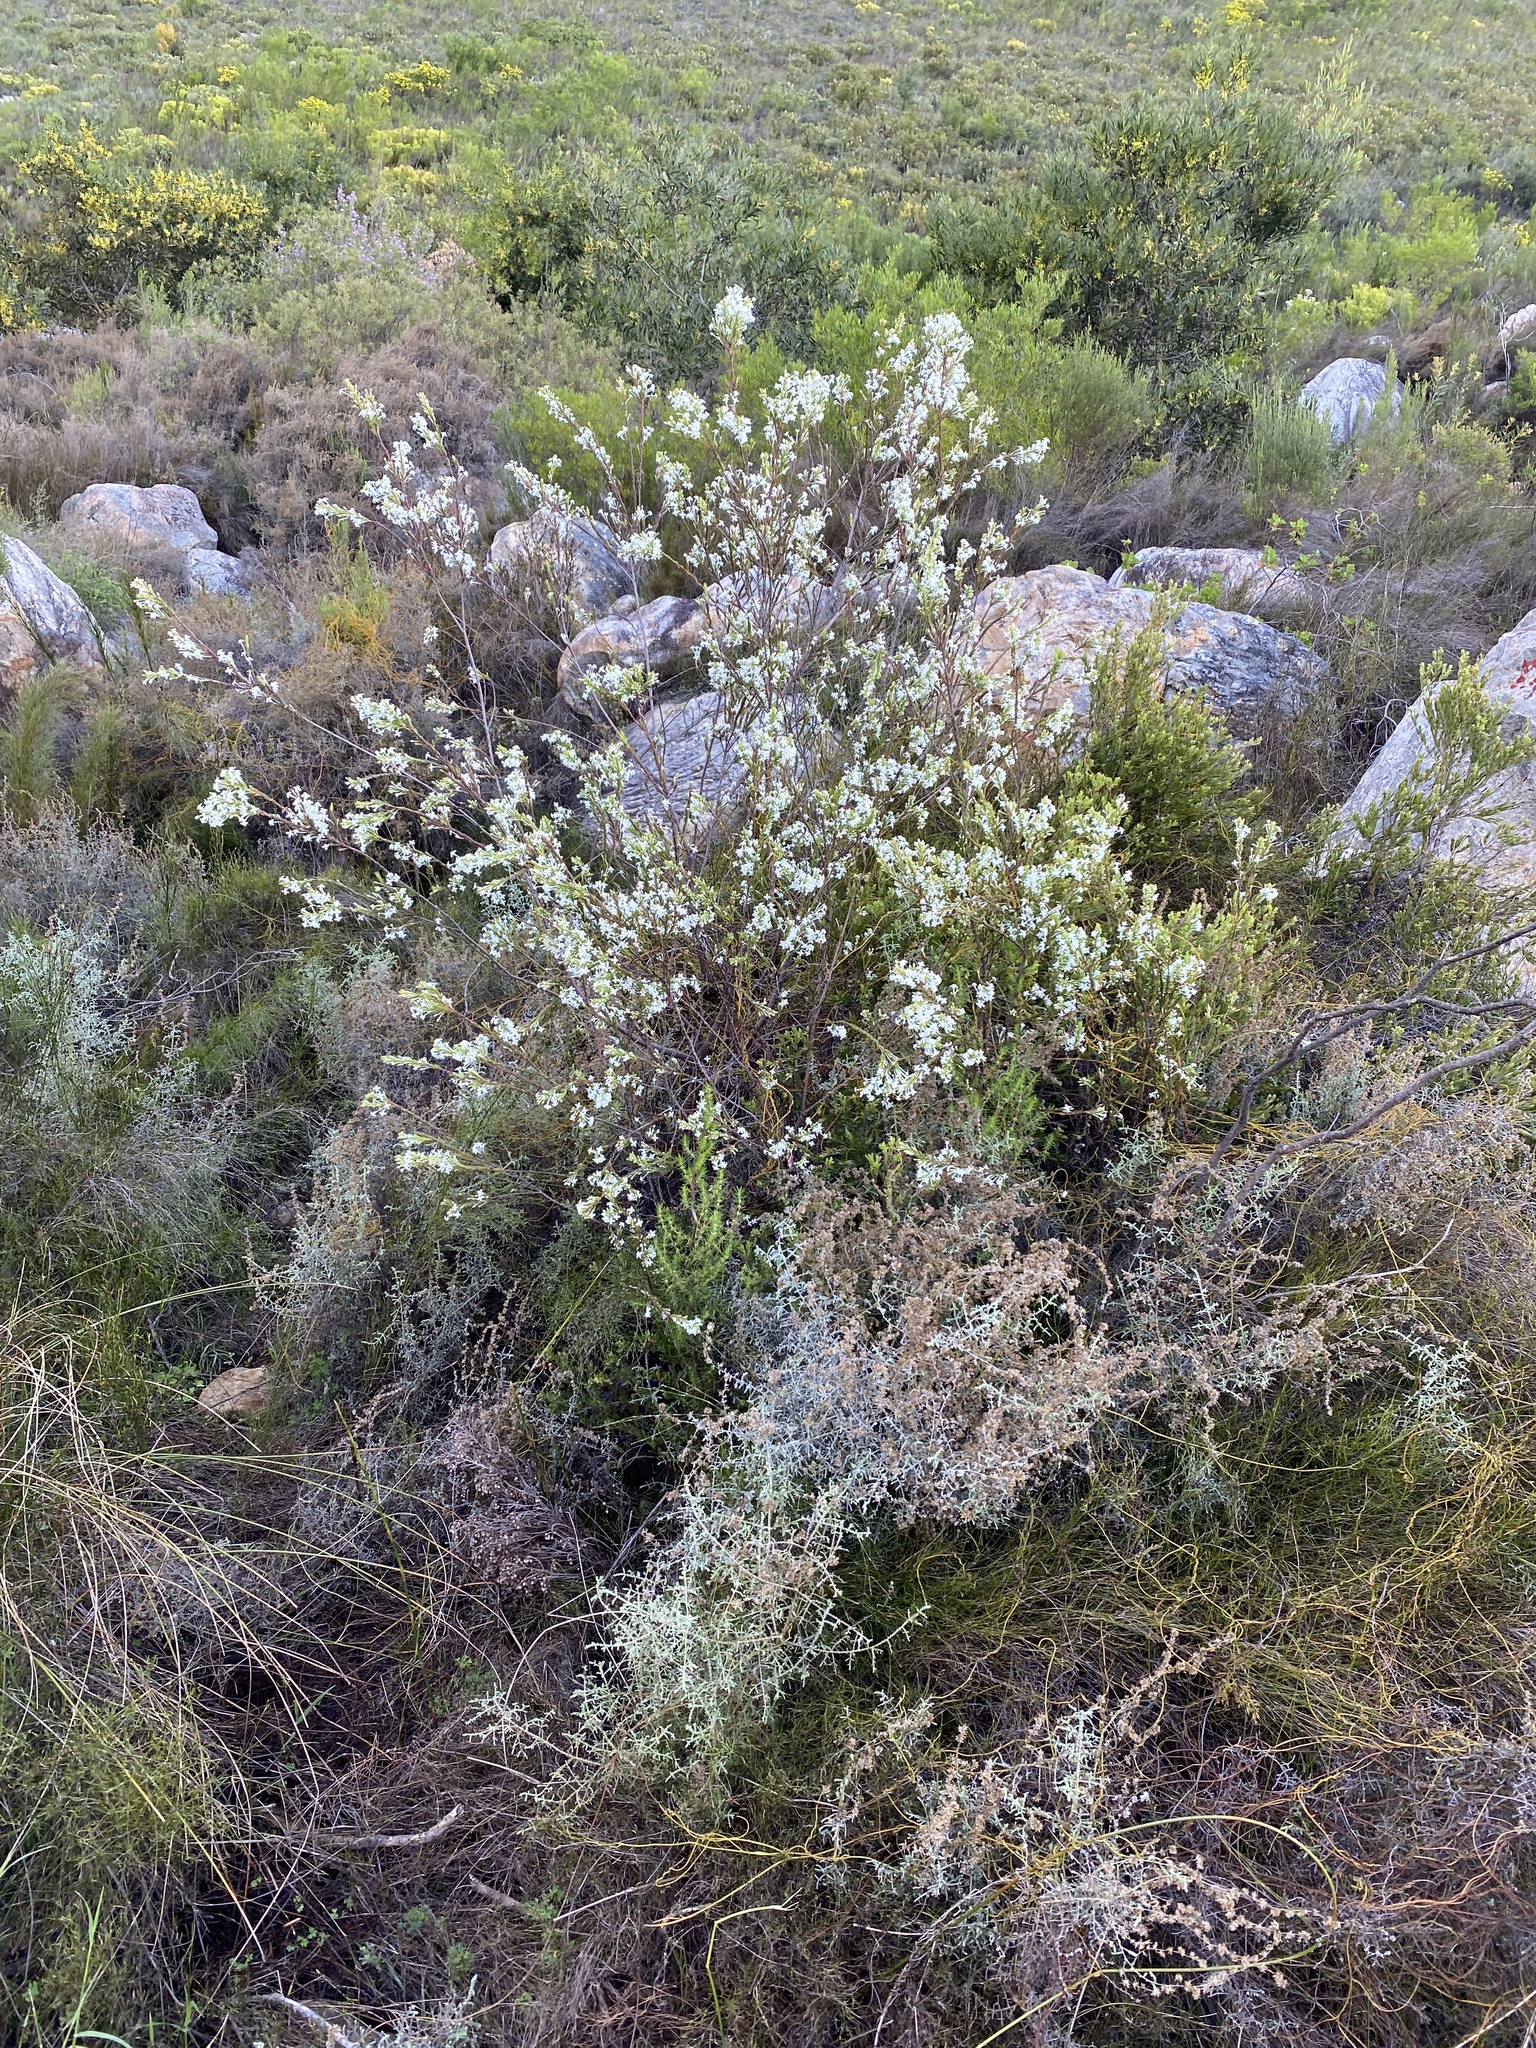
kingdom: Plantae
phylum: Tracheophyta
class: Magnoliopsida
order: Malvales
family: Thymelaeaceae
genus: Struthiola
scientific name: Struthiola myrsinites
